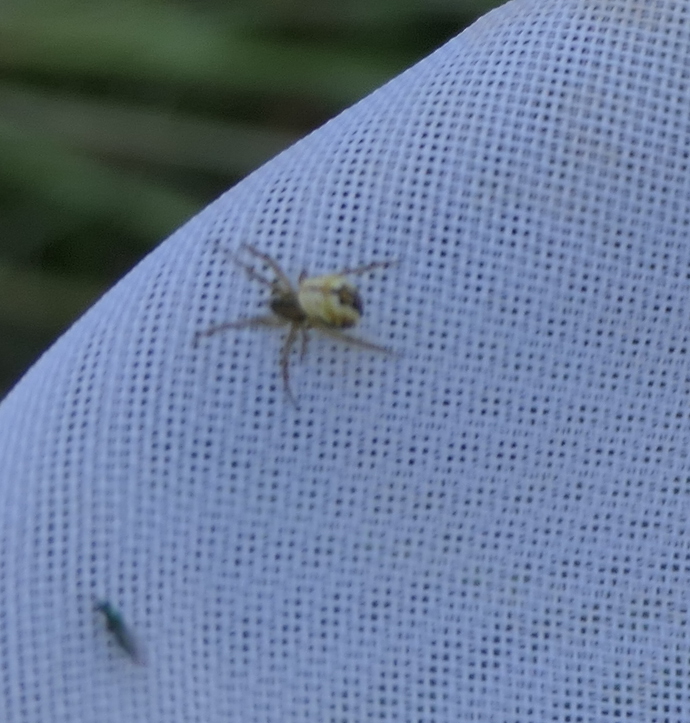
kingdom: Animalia
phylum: Arthropoda
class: Arachnida
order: Araneae
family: Araneidae
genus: Mangora
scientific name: Mangora acalypha
